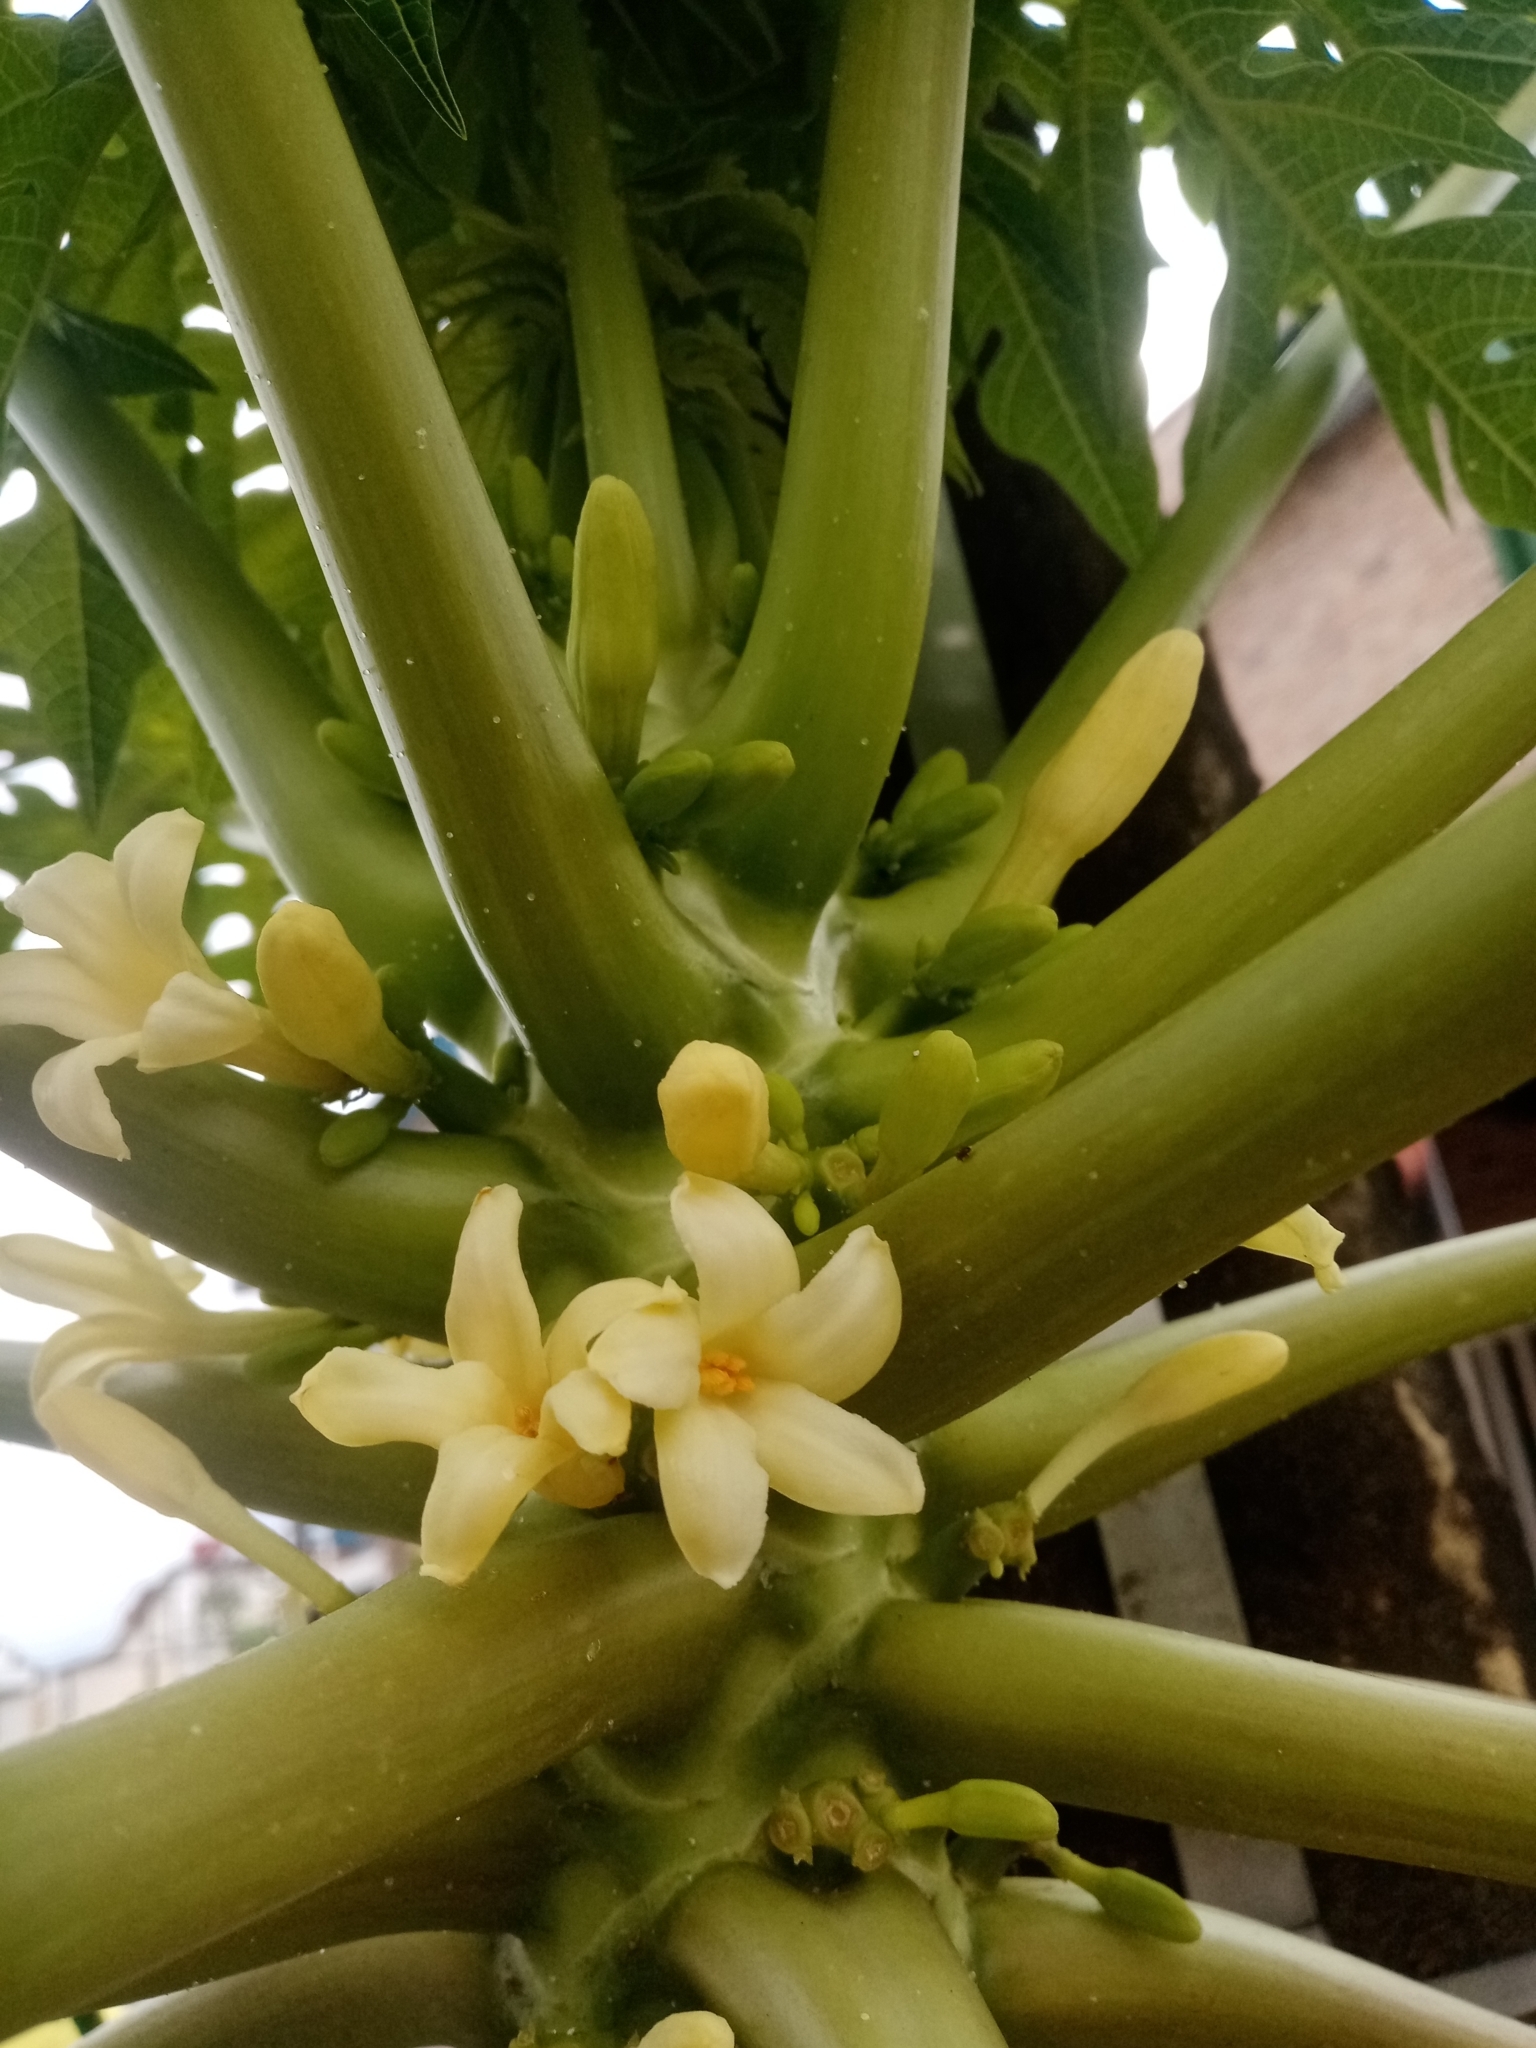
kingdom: Plantae
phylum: Tracheophyta
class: Magnoliopsida
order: Brassicales
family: Caricaceae
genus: Carica
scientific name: Carica papaya
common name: Papaya
